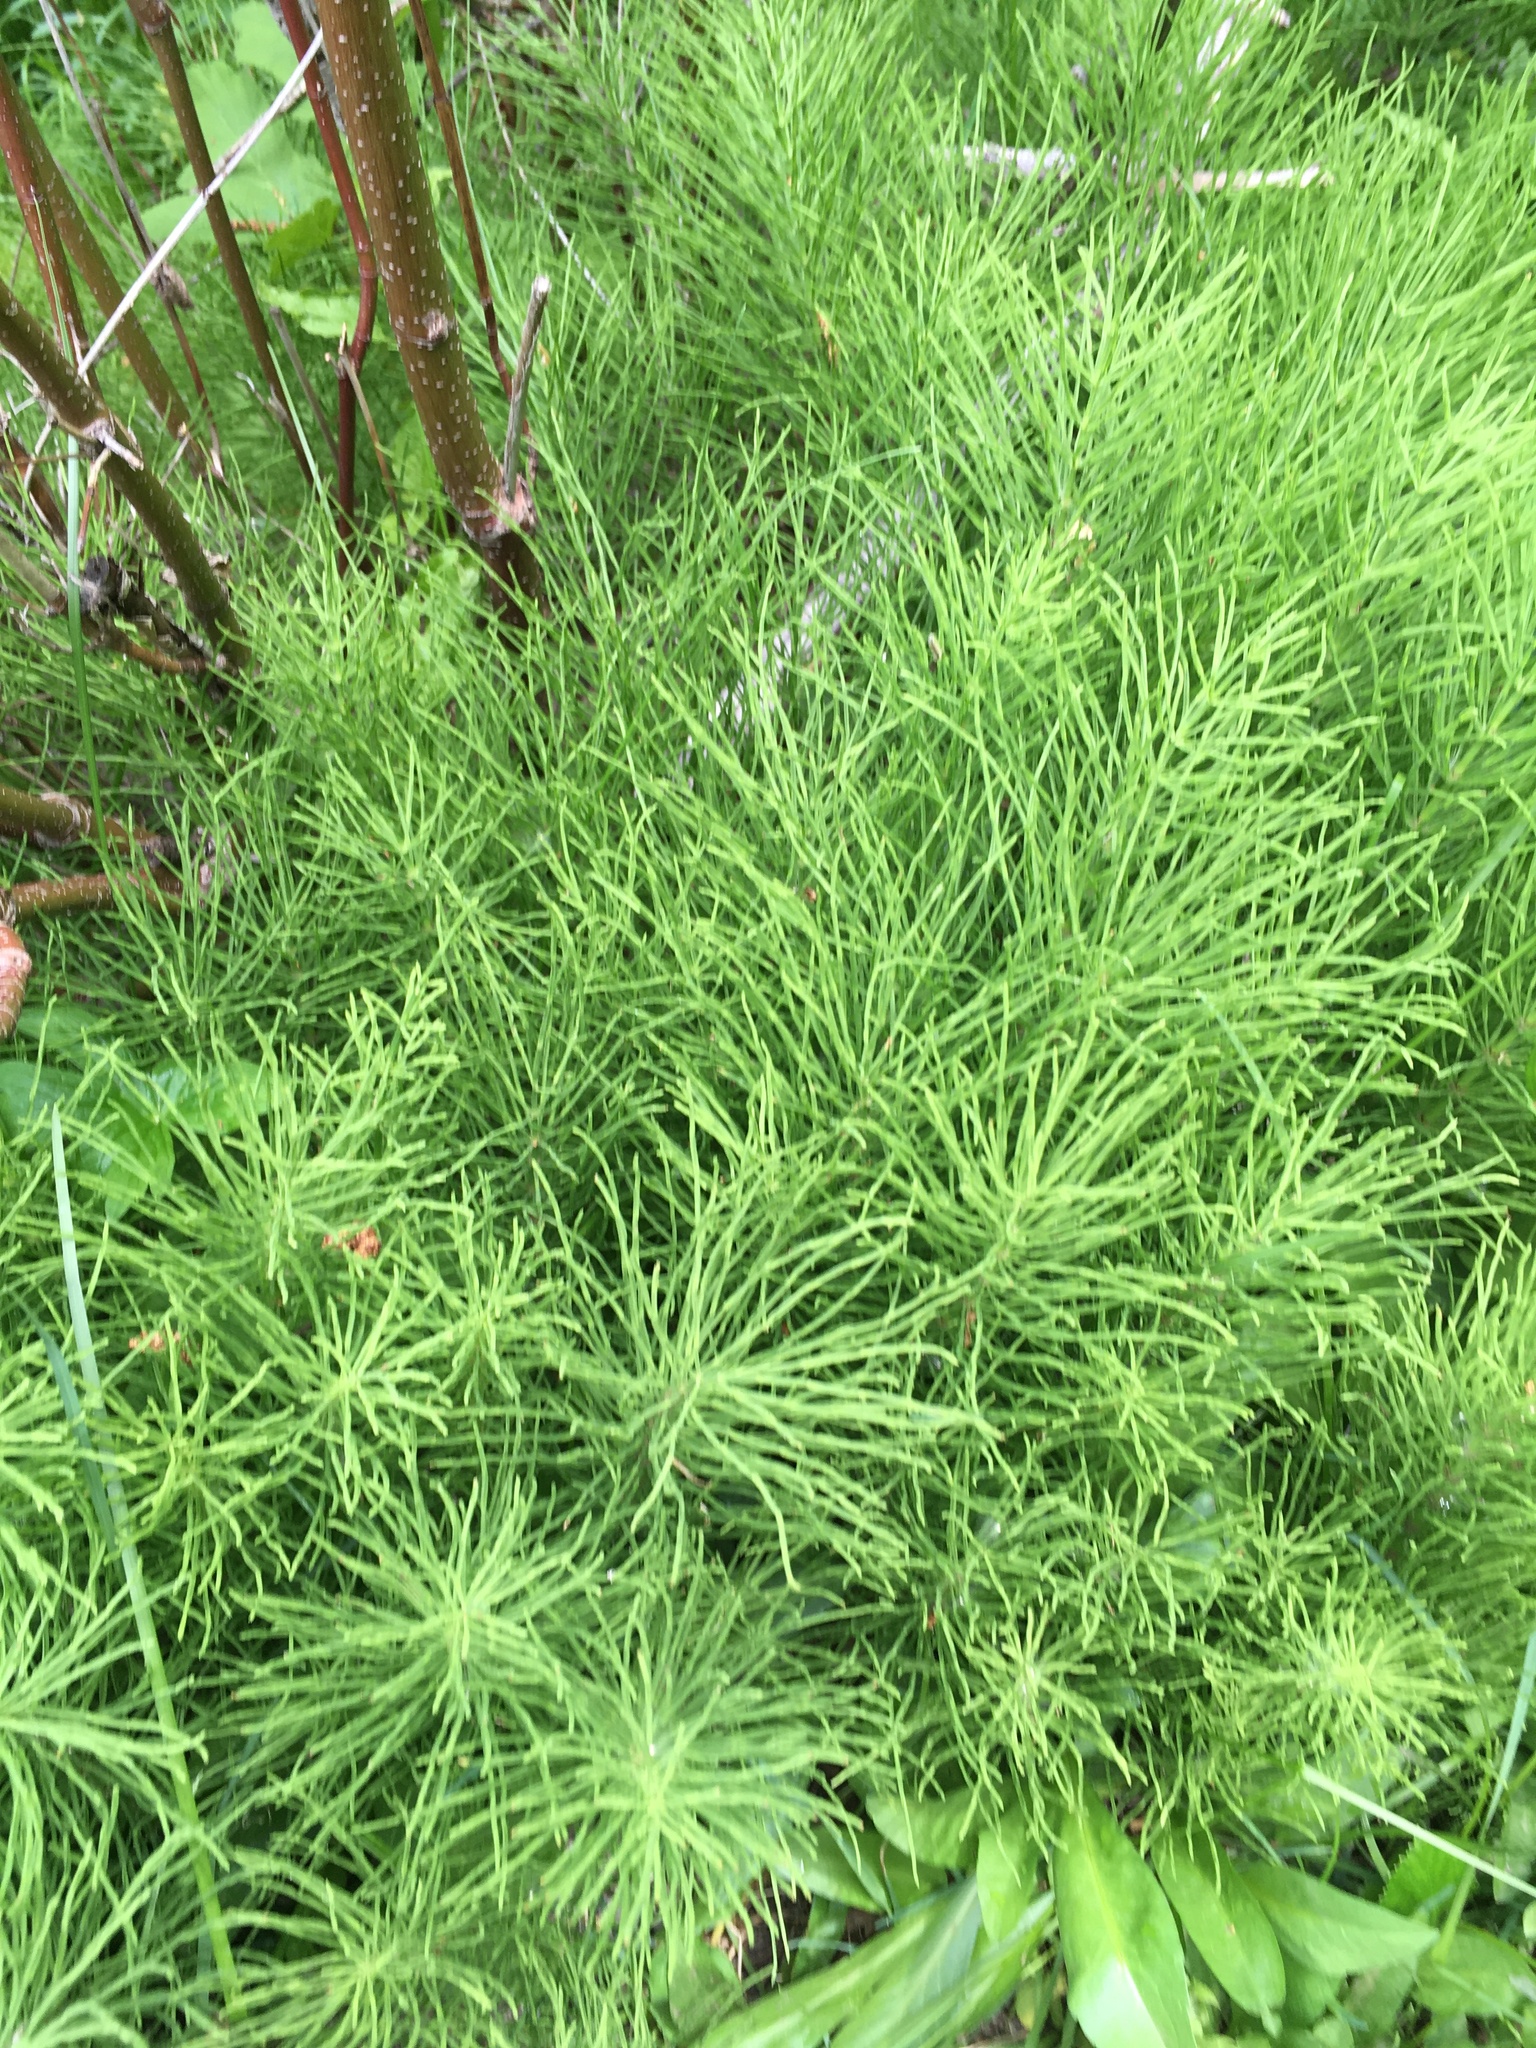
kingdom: Plantae
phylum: Tracheophyta
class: Polypodiopsida
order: Equisetales
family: Equisetaceae
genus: Equisetum
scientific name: Equisetum arvense
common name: Field horsetail
